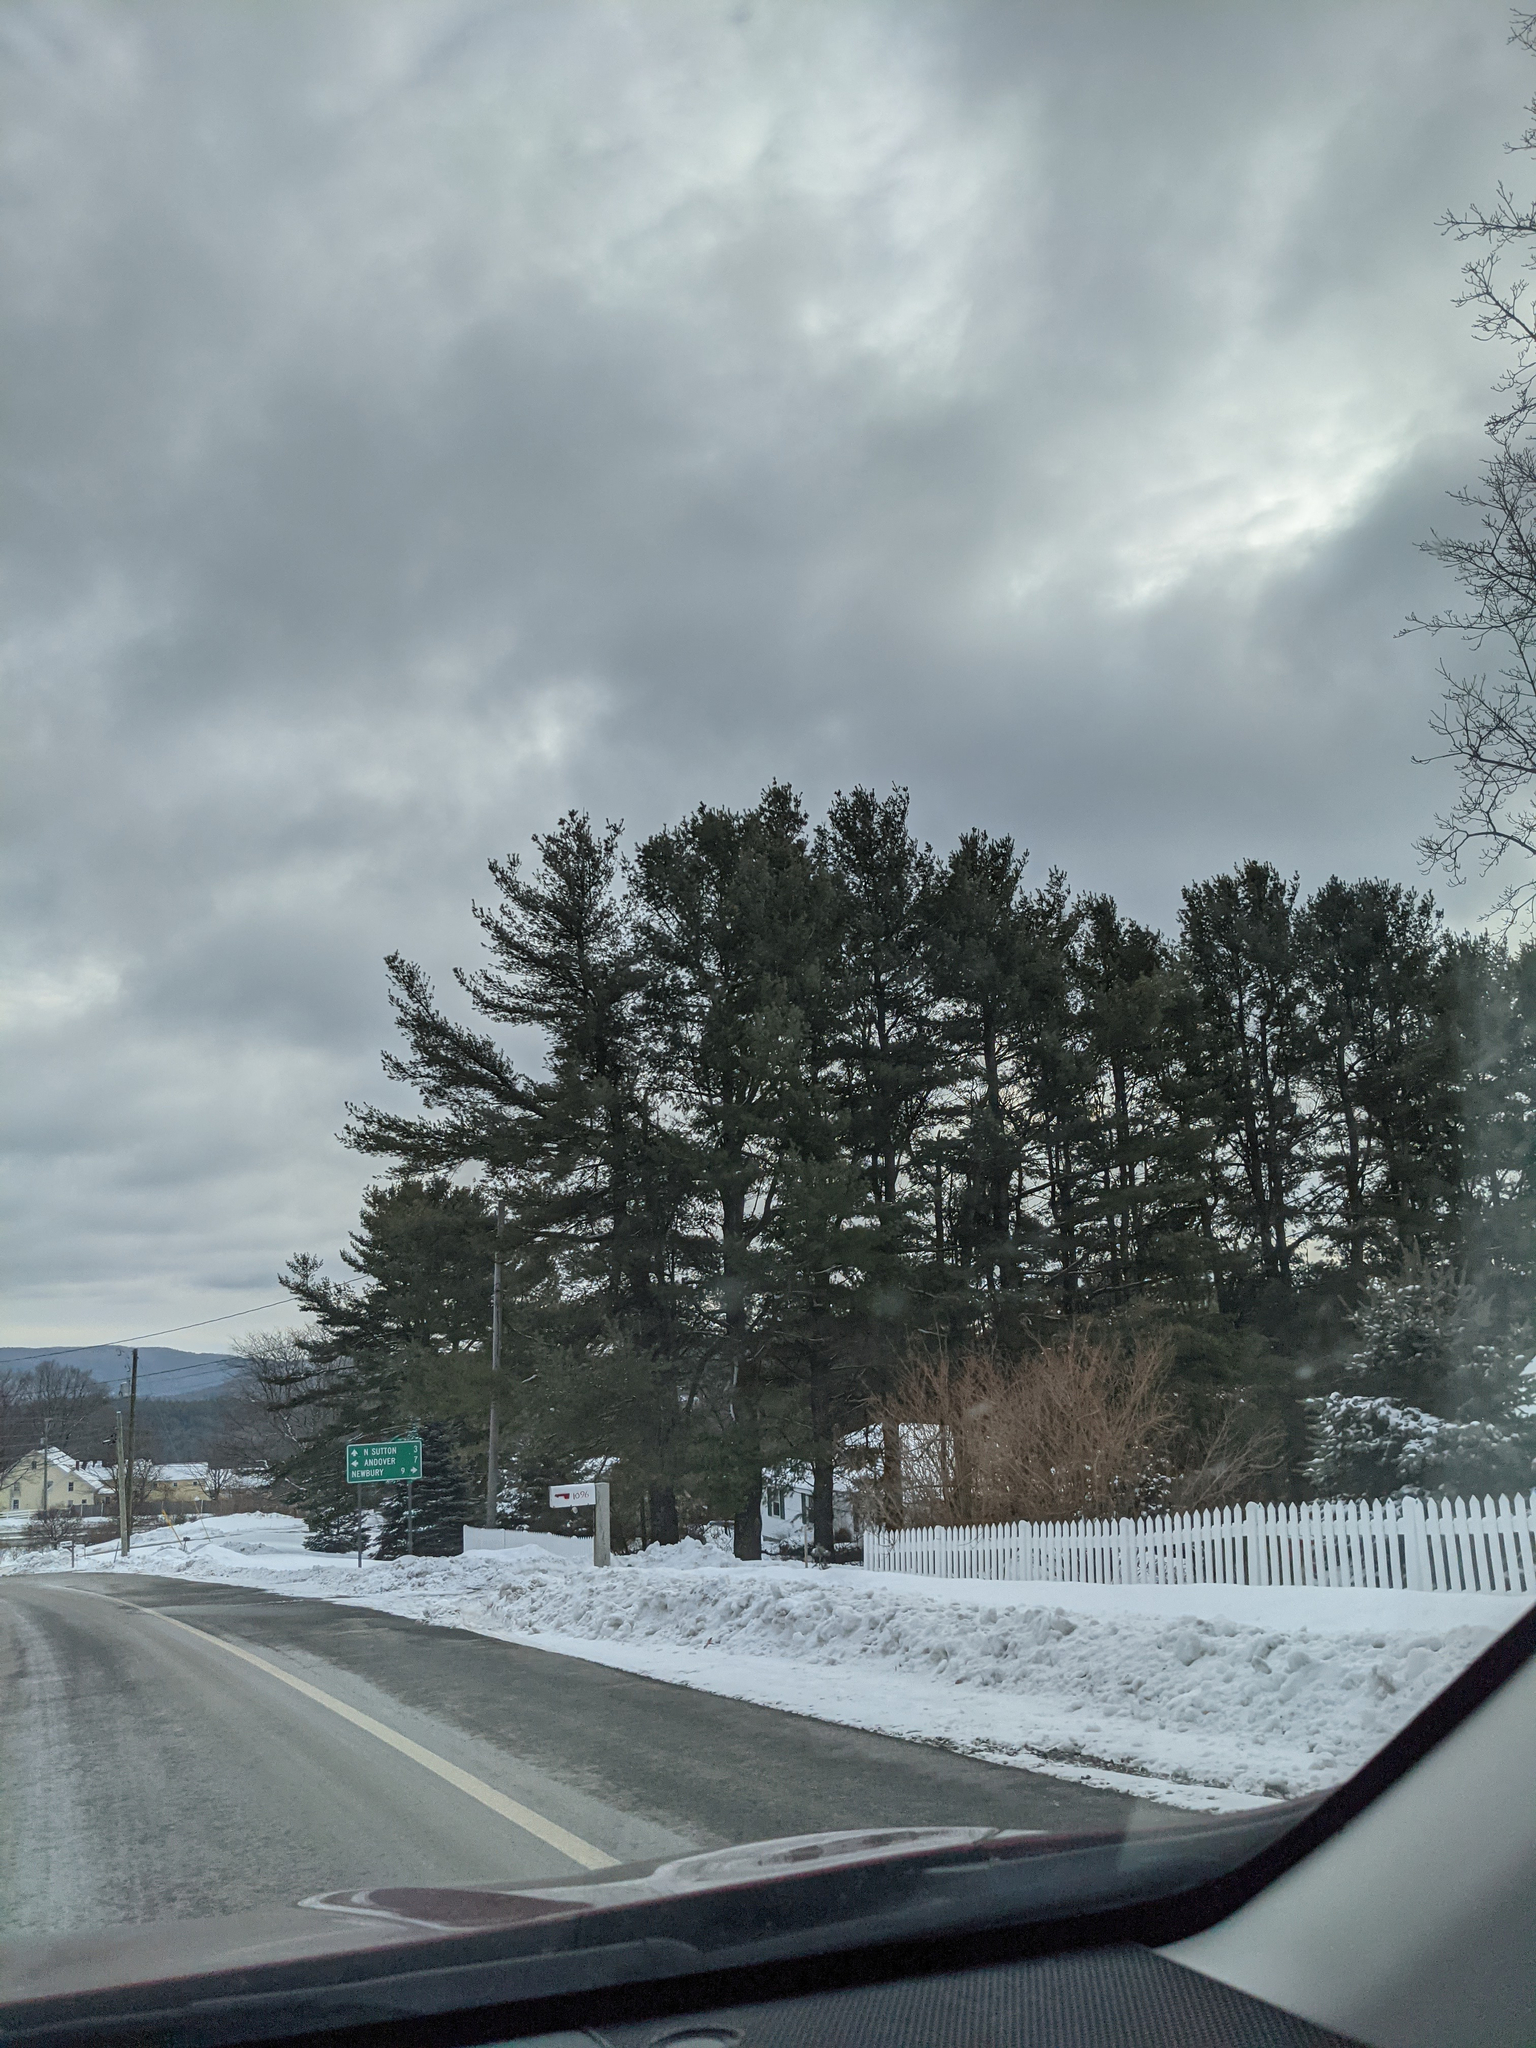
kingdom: Plantae
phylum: Tracheophyta
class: Pinopsida
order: Pinales
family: Pinaceae
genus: Pinus
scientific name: Pinus strobus
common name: Weymouth pine
